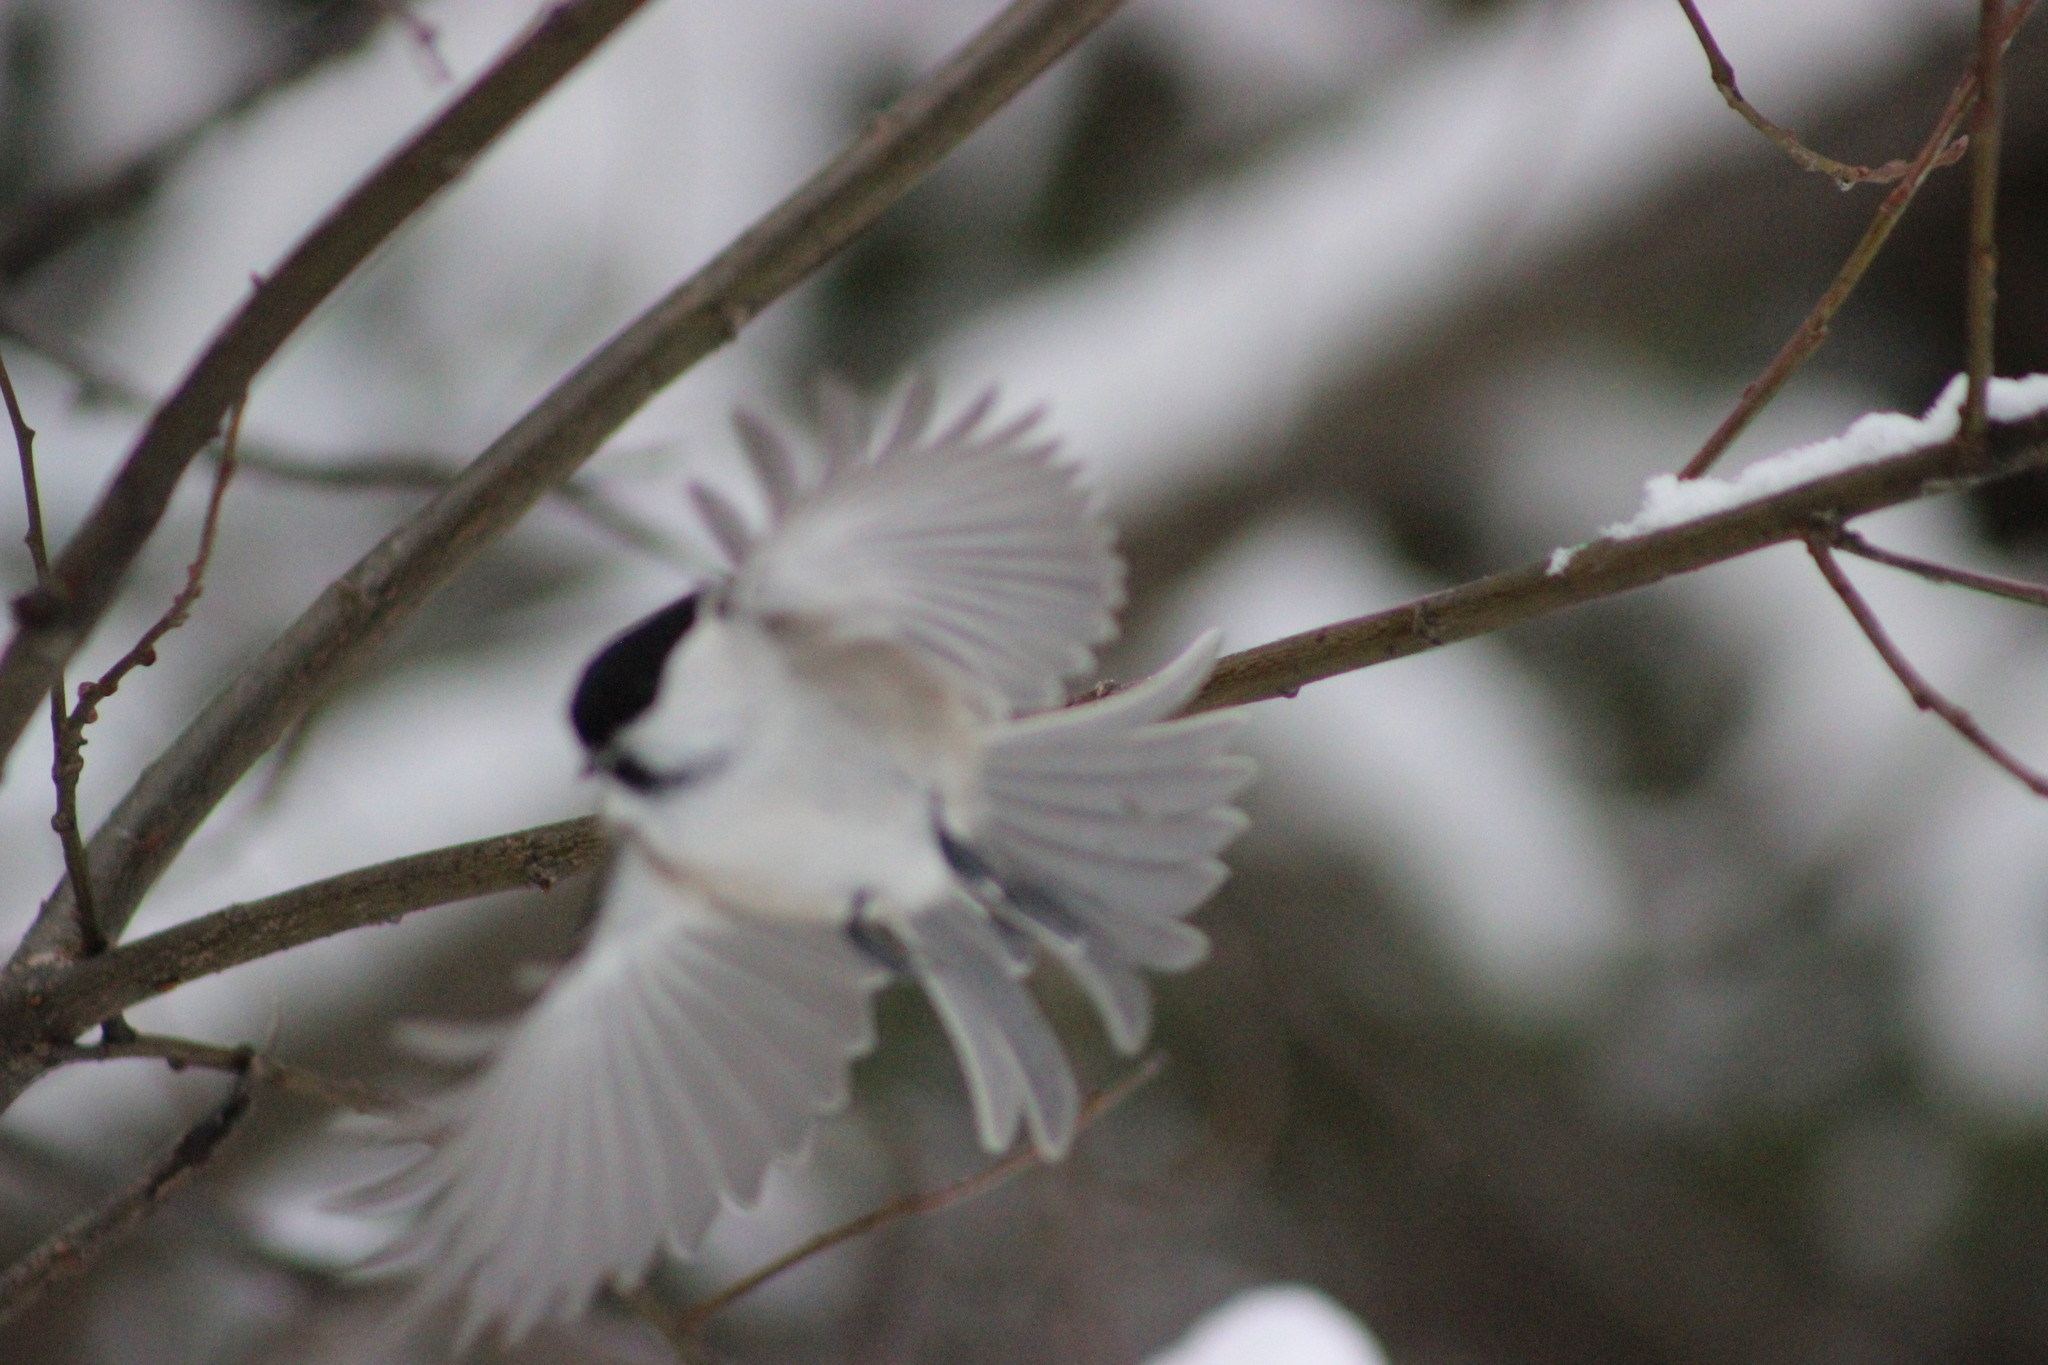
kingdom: Animalia
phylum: Chordata
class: Aves
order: Passeriformes
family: Paridae
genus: Poecile
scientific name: Poecile montanus
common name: Willow tit
